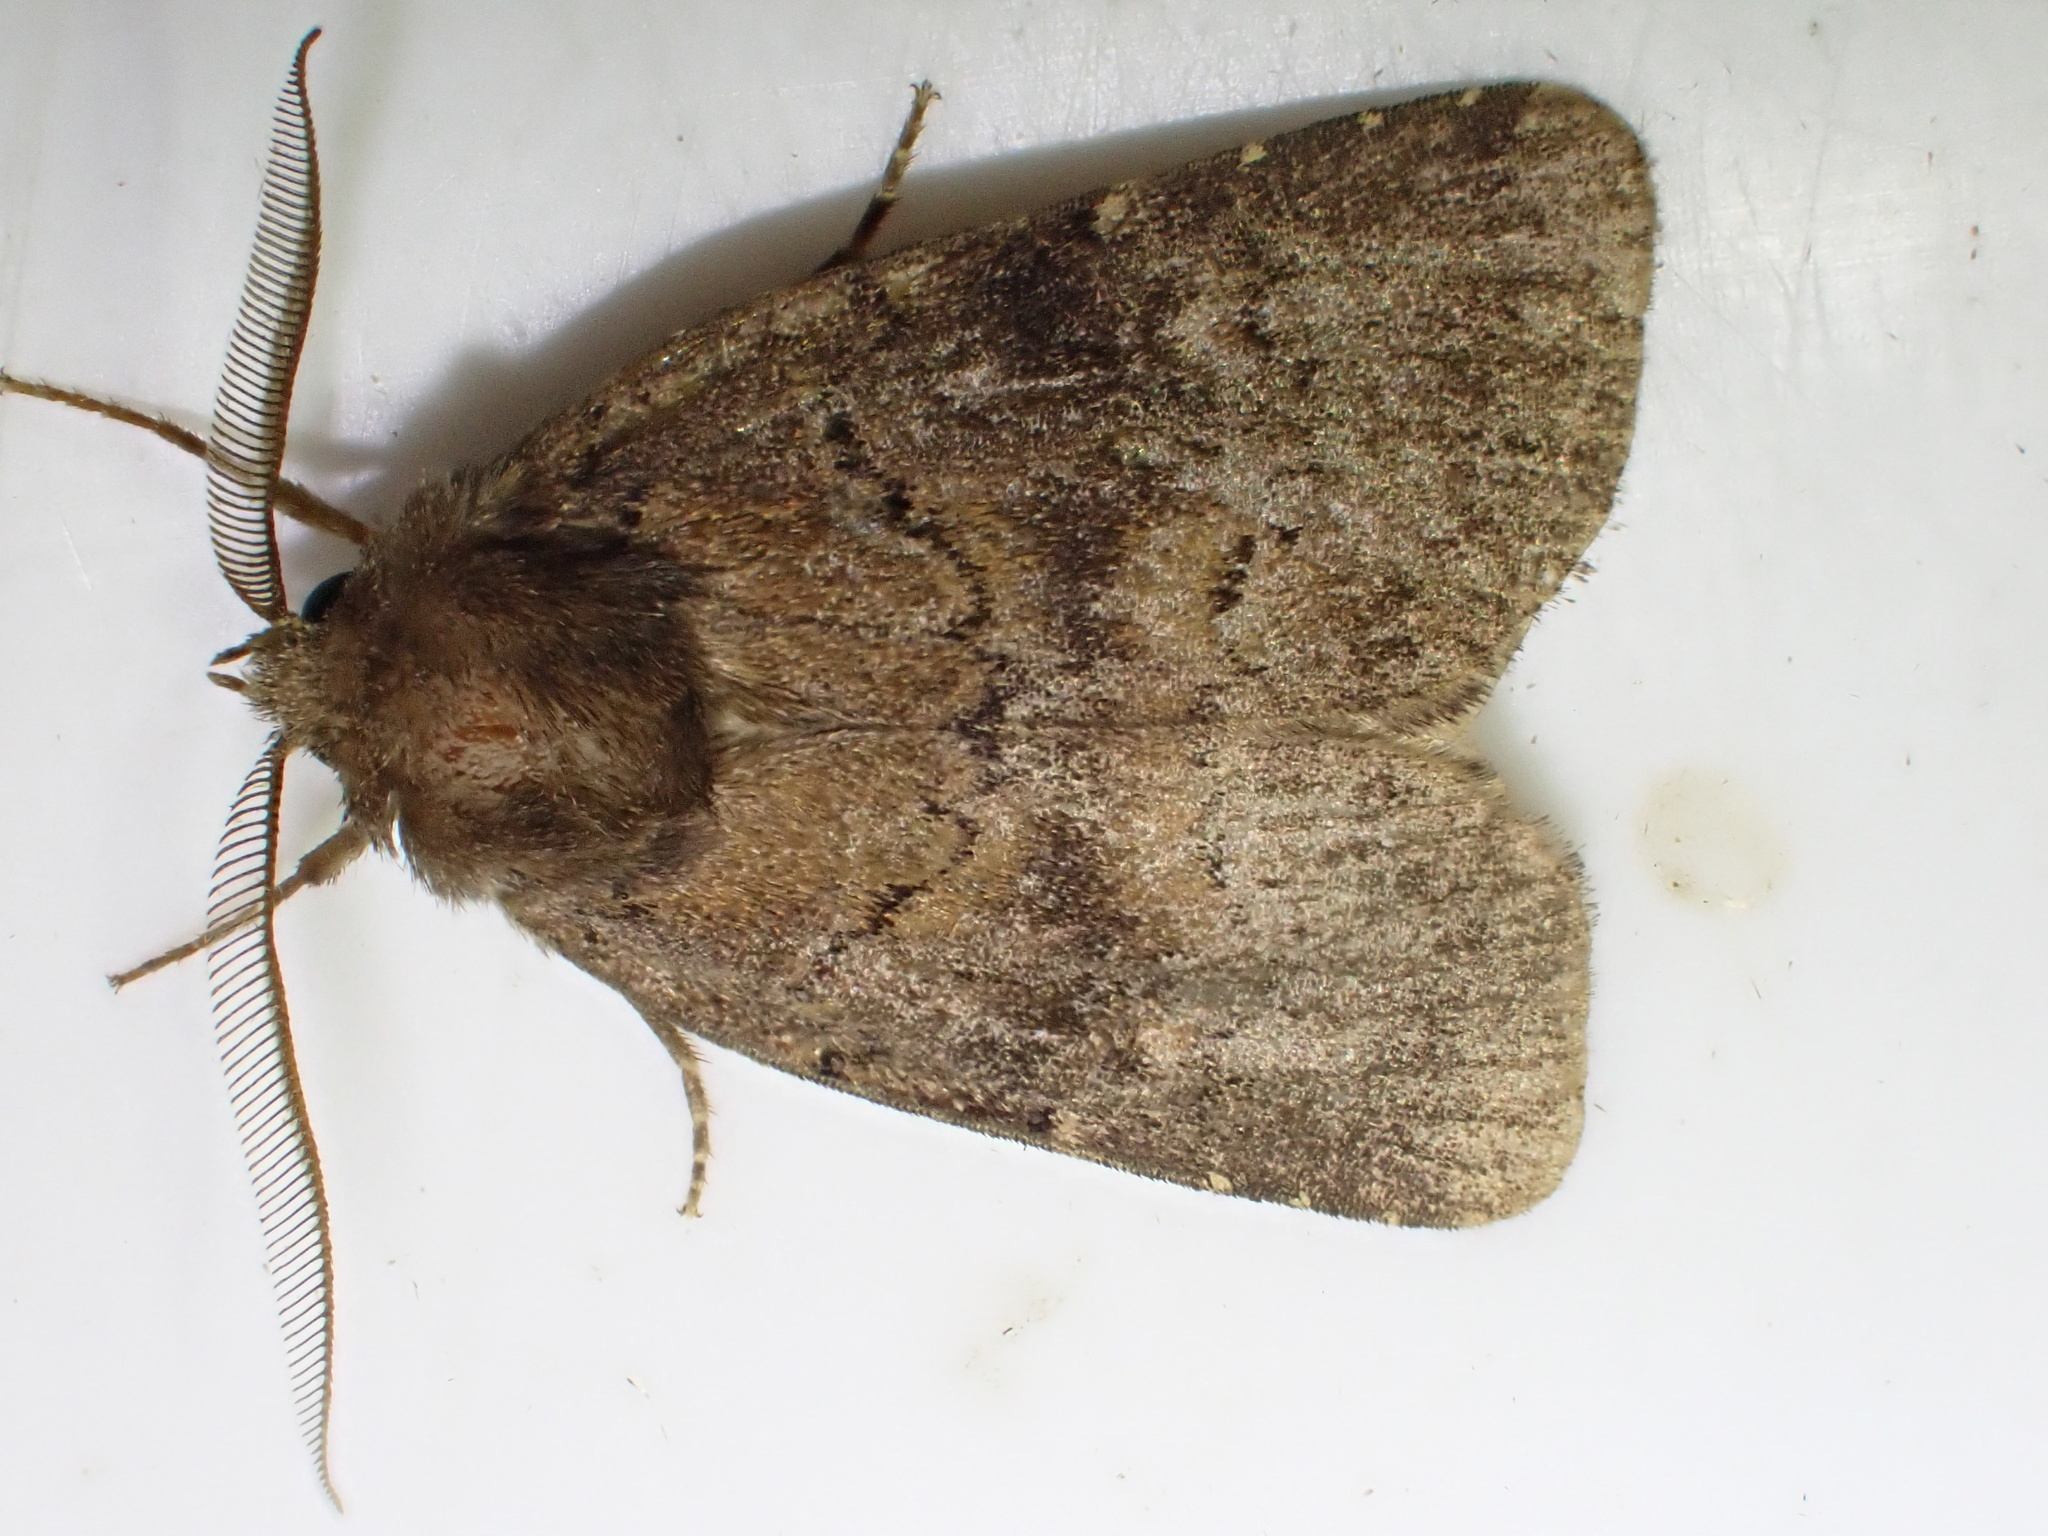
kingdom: Animalia
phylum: Arthropoda
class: Insecta
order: Lepidoptera
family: Noctuidae
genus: Charanyca
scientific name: Charanyca ferruginea
